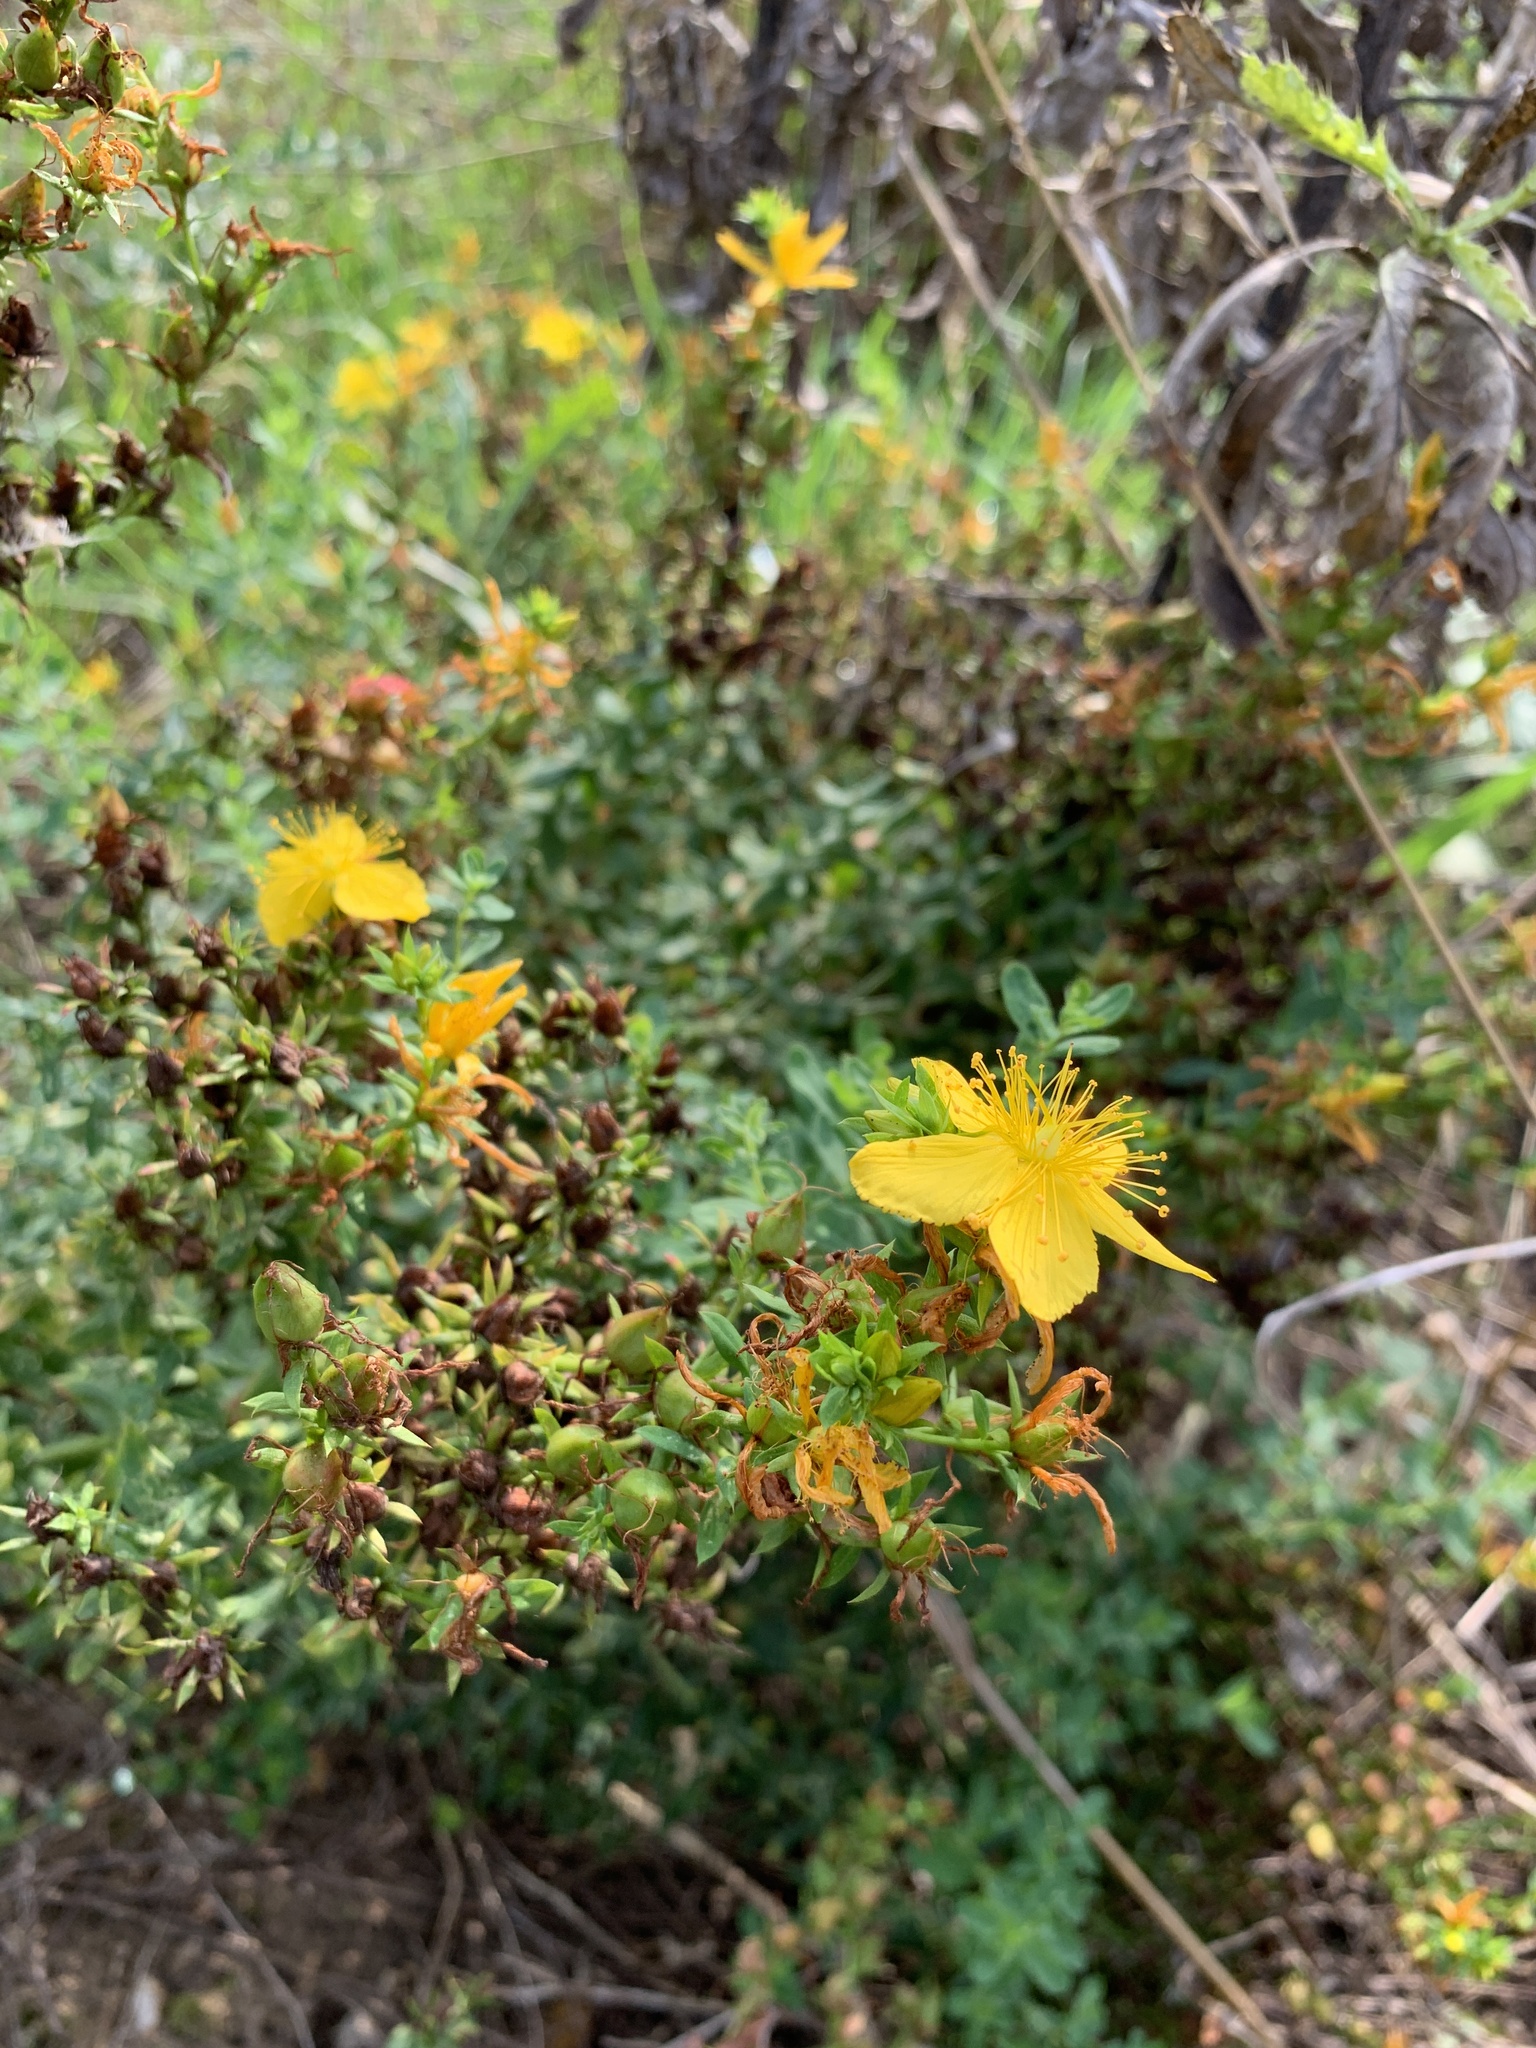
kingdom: Plantae
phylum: Tracheophyta
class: Magnoliopsida
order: Malpighiales
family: Hypericaceae
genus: Hypericum
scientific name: Hypericum perforatum
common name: Common st. johnswort
